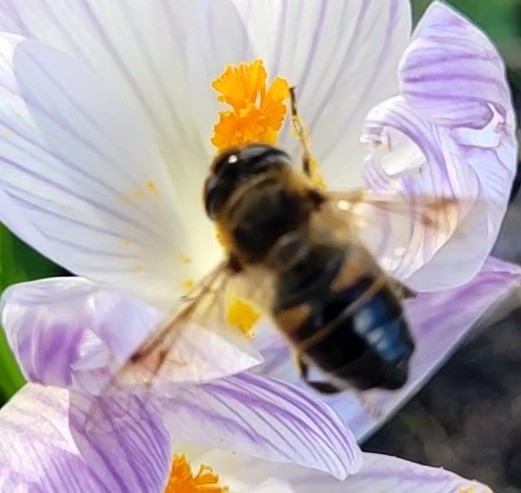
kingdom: Animalia
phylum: Arthropoda
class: Insecta
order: Diptera
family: Syrphidae
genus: Eristalis
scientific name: Eristalis tenax
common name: Drone fly
